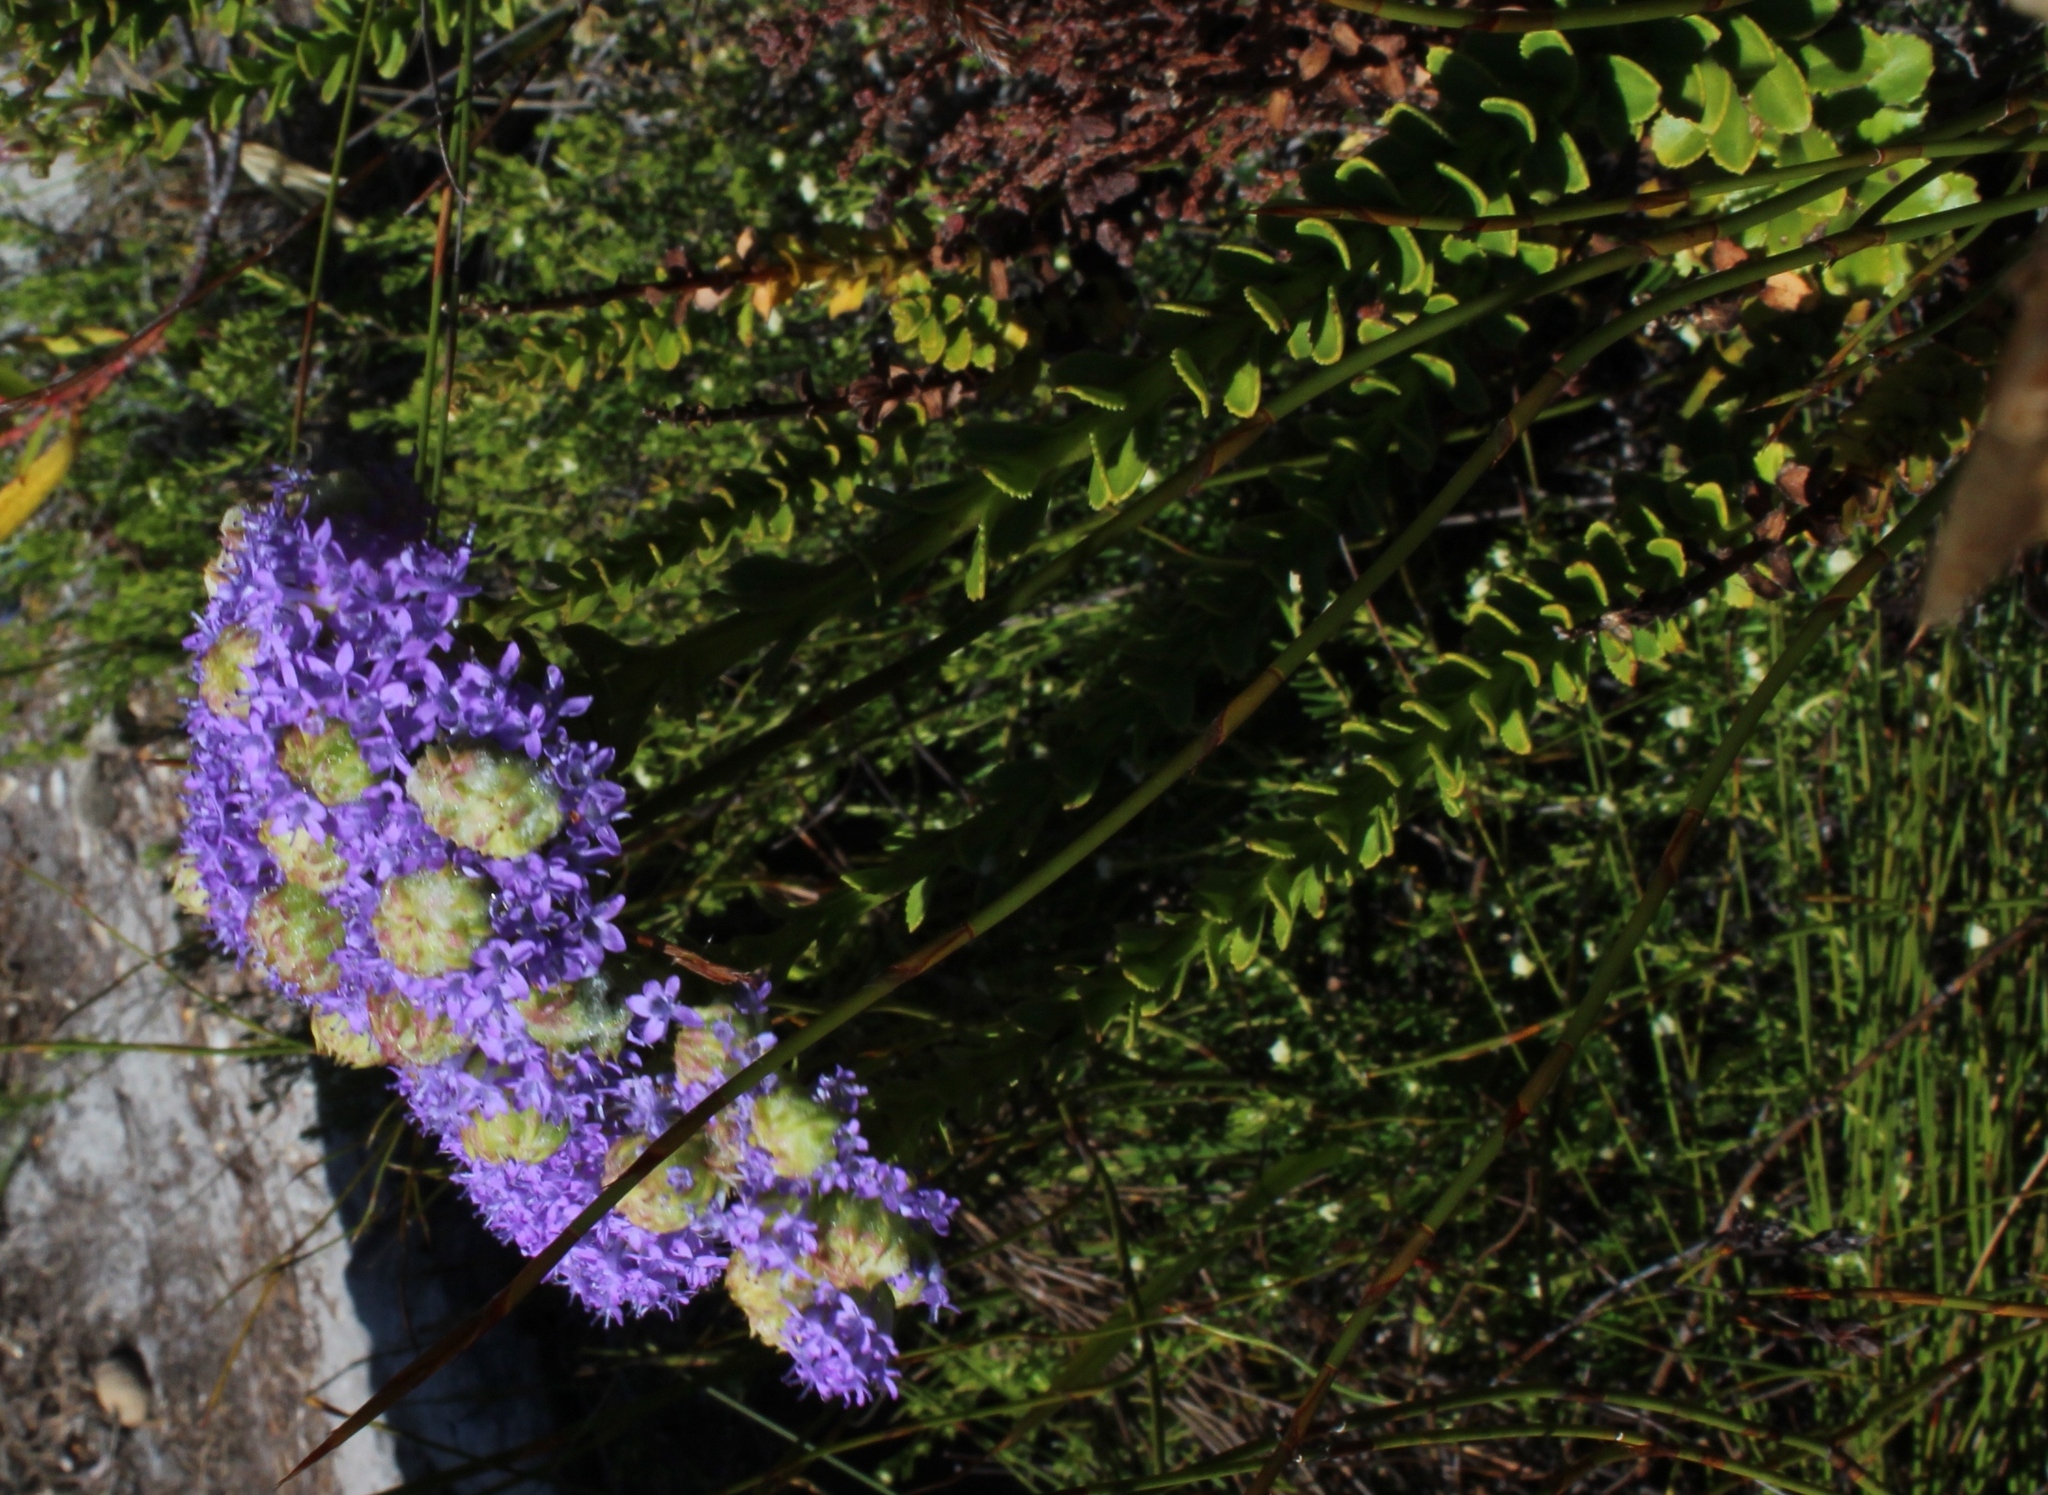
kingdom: Plantae
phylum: Tracheophyta
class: Magnoliopsida
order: Lamiales
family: Scrophulariaceae
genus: Pseudoselago
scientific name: Pseudoselago pulchra
